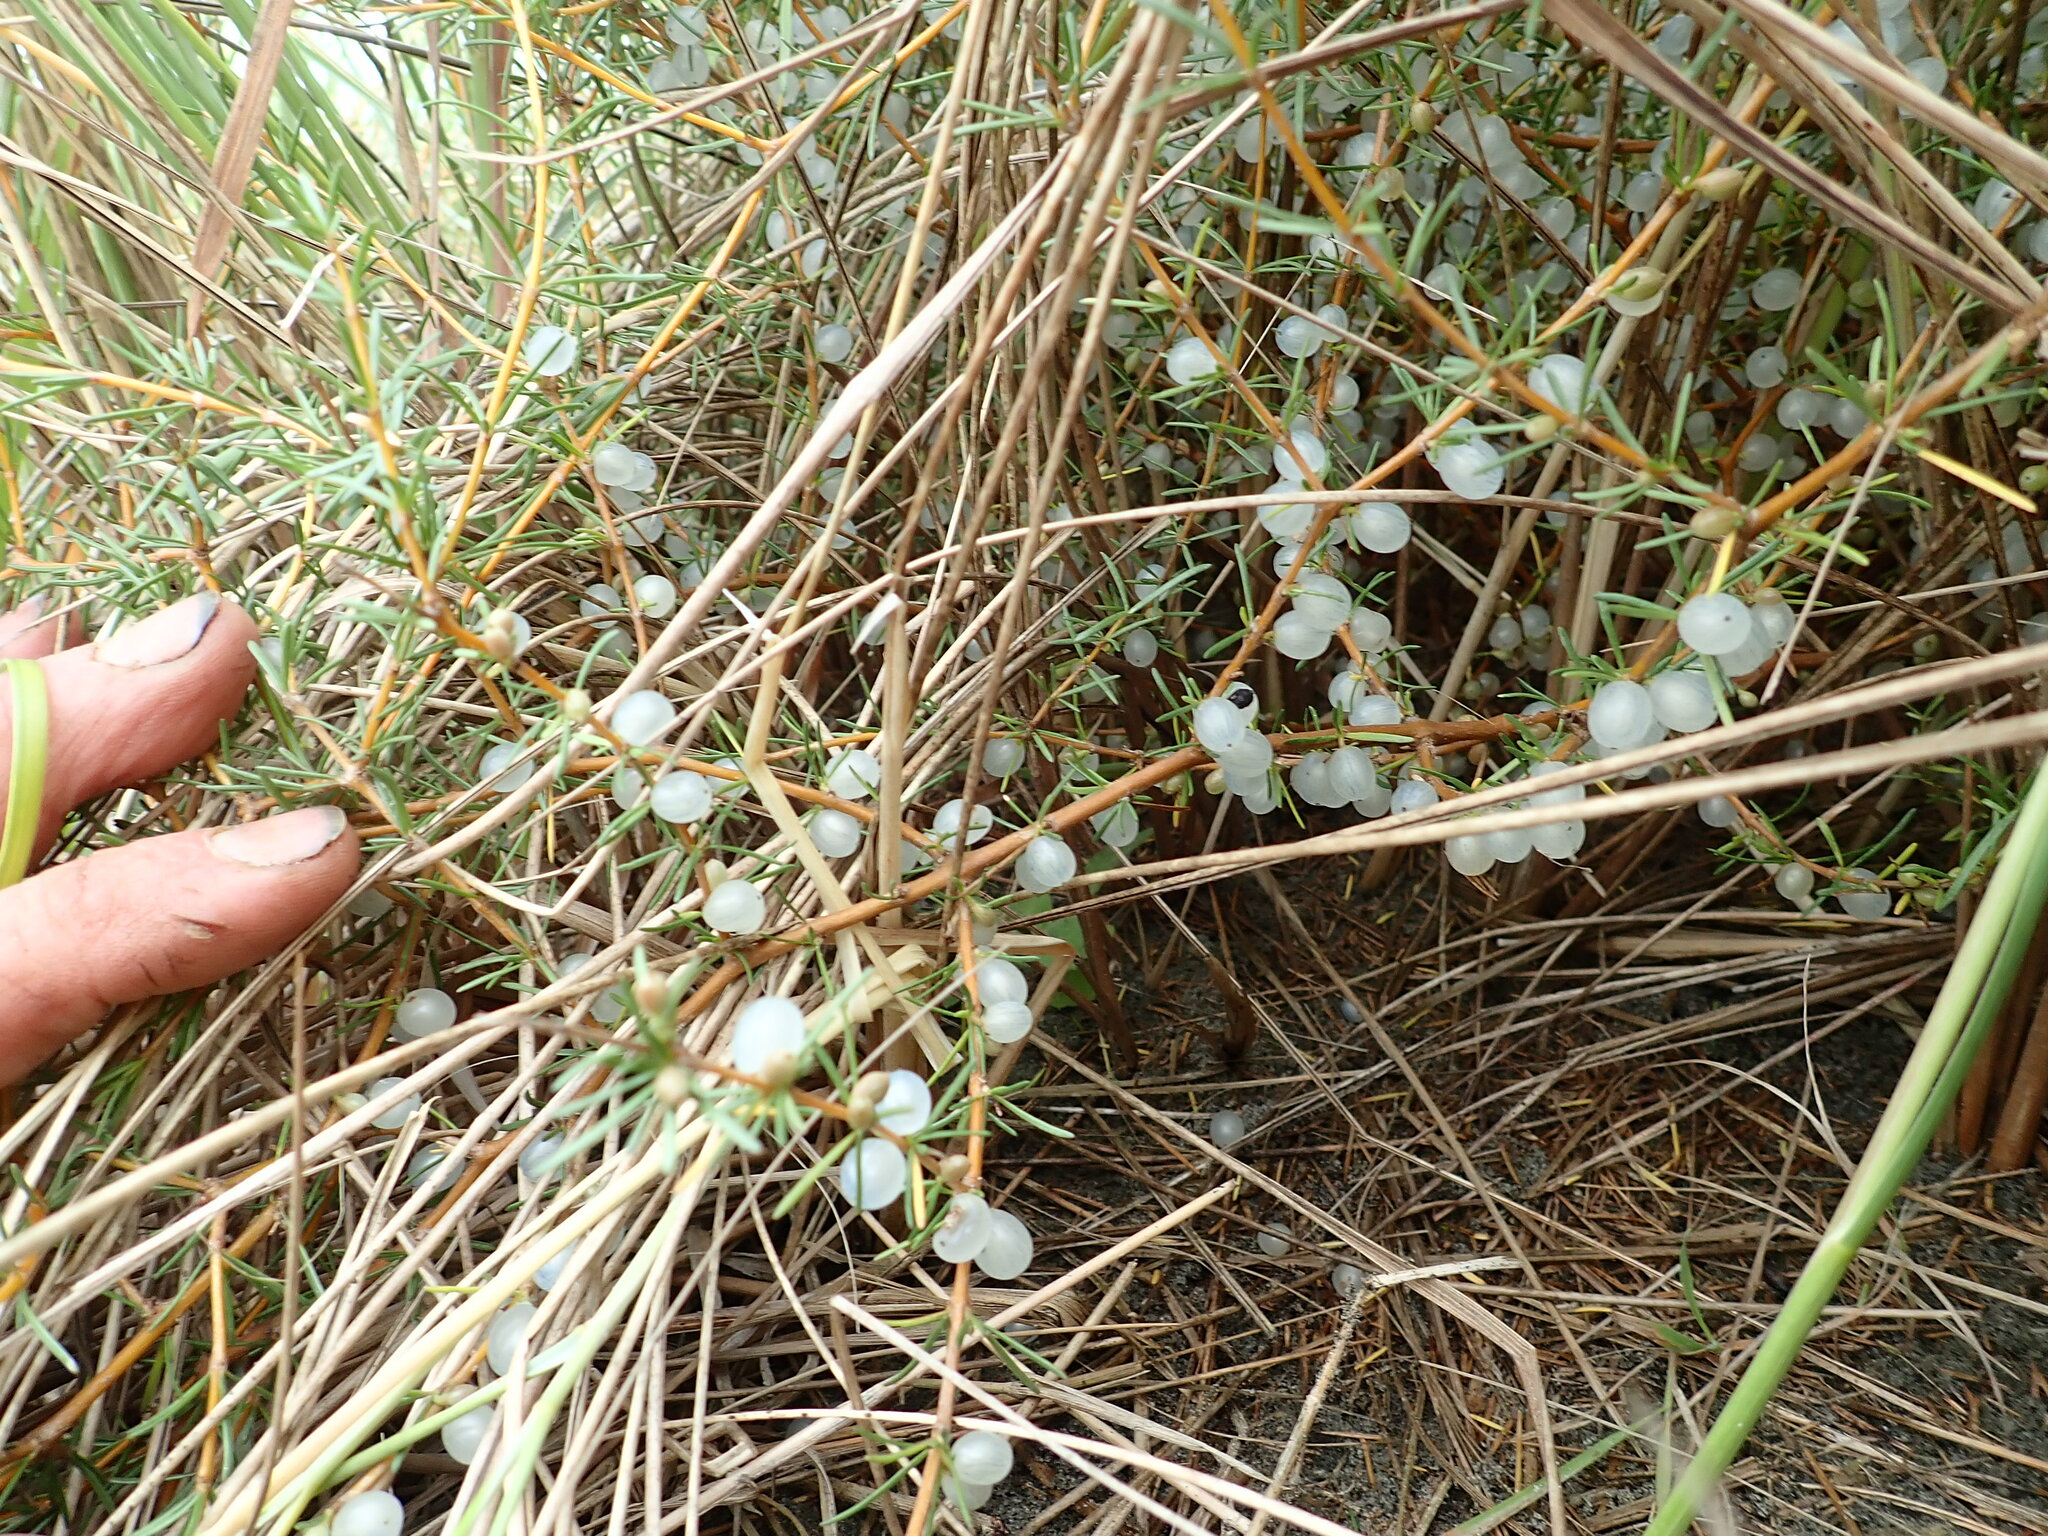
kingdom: Plantae
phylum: Tracheophyta
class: Magnoliopsida
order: Gentianales
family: Rubiaceae
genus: Coprosma
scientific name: Coprosma acerosa
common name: Sand coprosma
